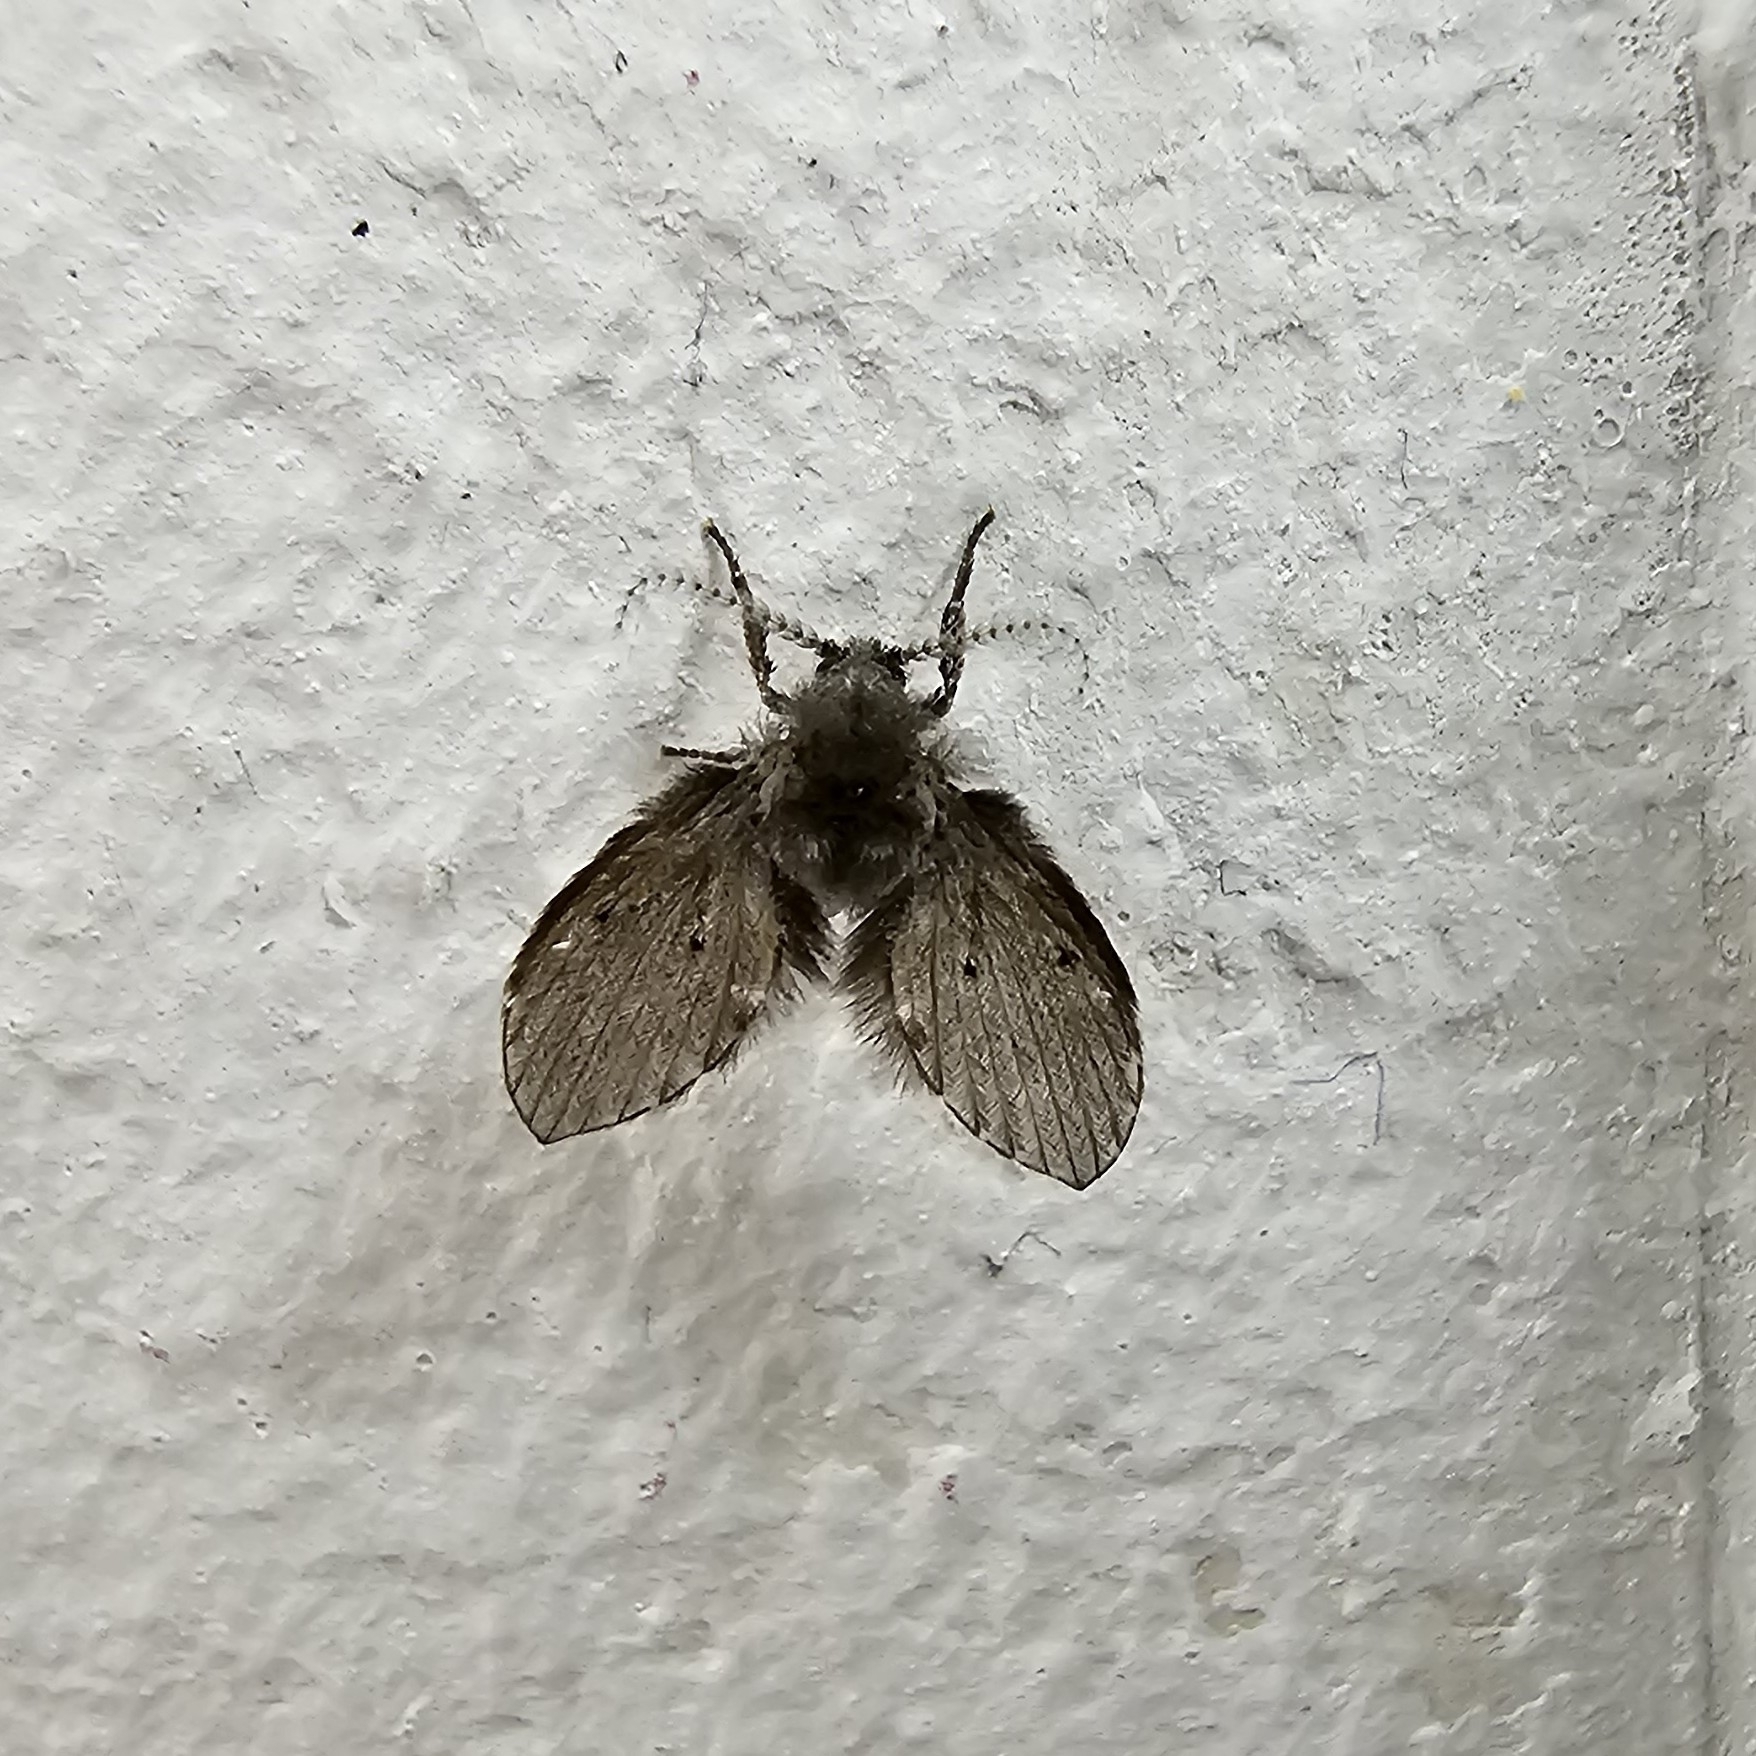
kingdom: Animalia
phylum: Arthropoda
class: Insecta
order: Diptera
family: Psychodidae
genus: Clogmia
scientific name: Clogmia albipunctatus
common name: White-spotted moth fly
